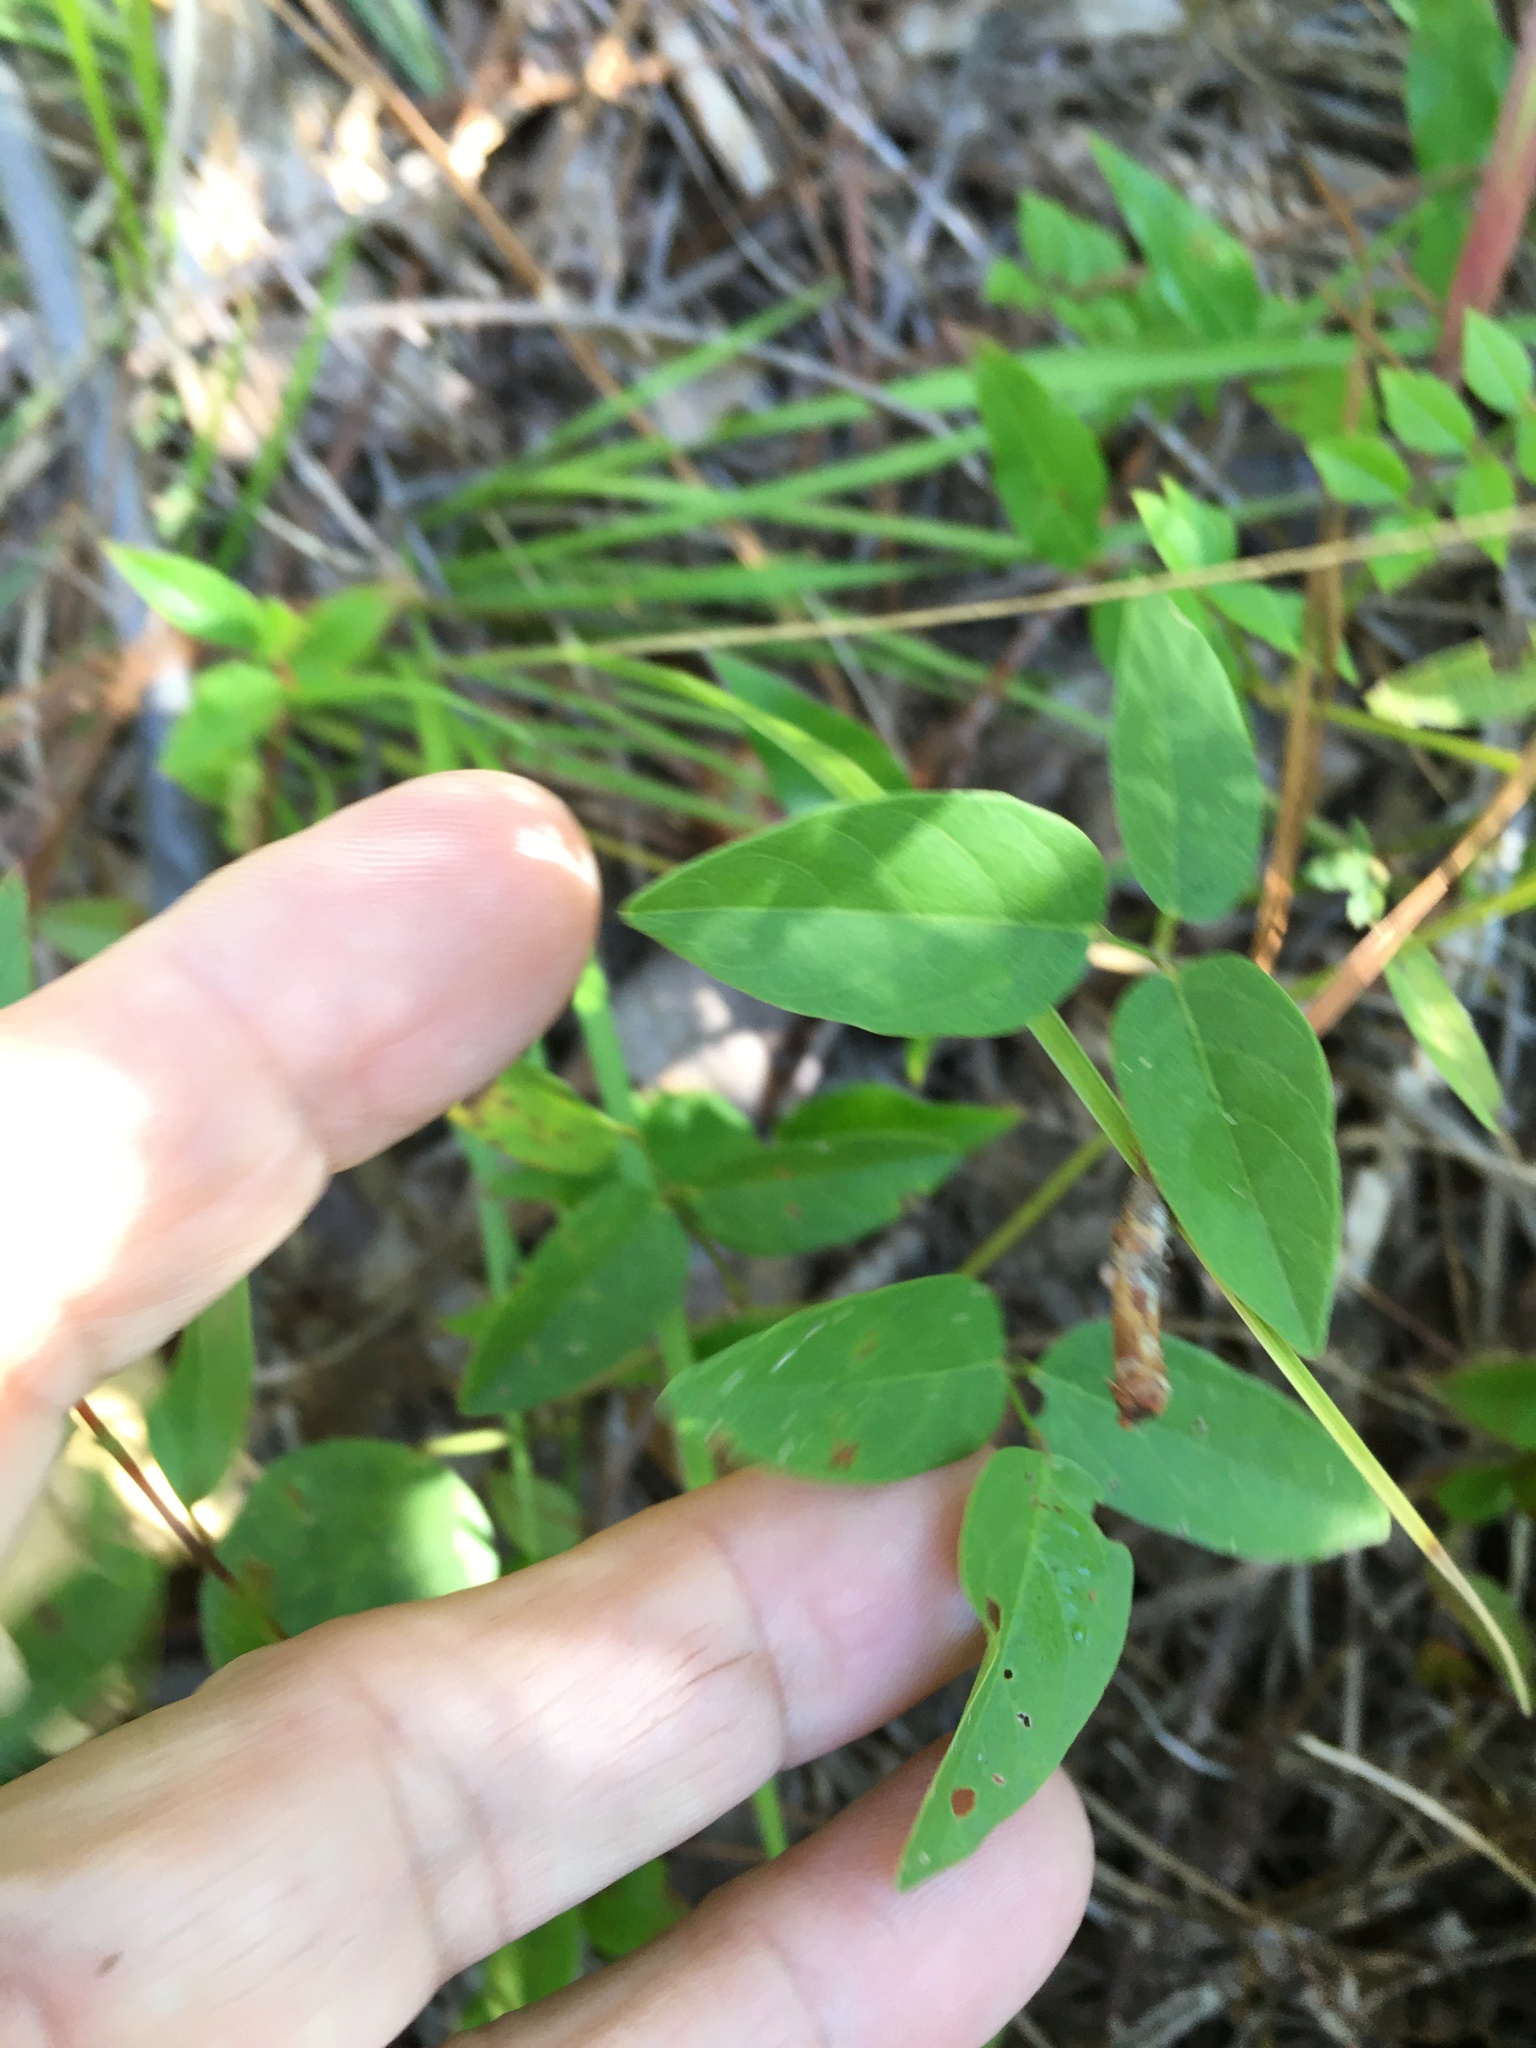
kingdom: Plantae
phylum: Tracheophyta
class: Magnoliopsida
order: Fabales
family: Fabaceae
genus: Centrosema
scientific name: Centrosema virginianum
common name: Butterfly-pea
